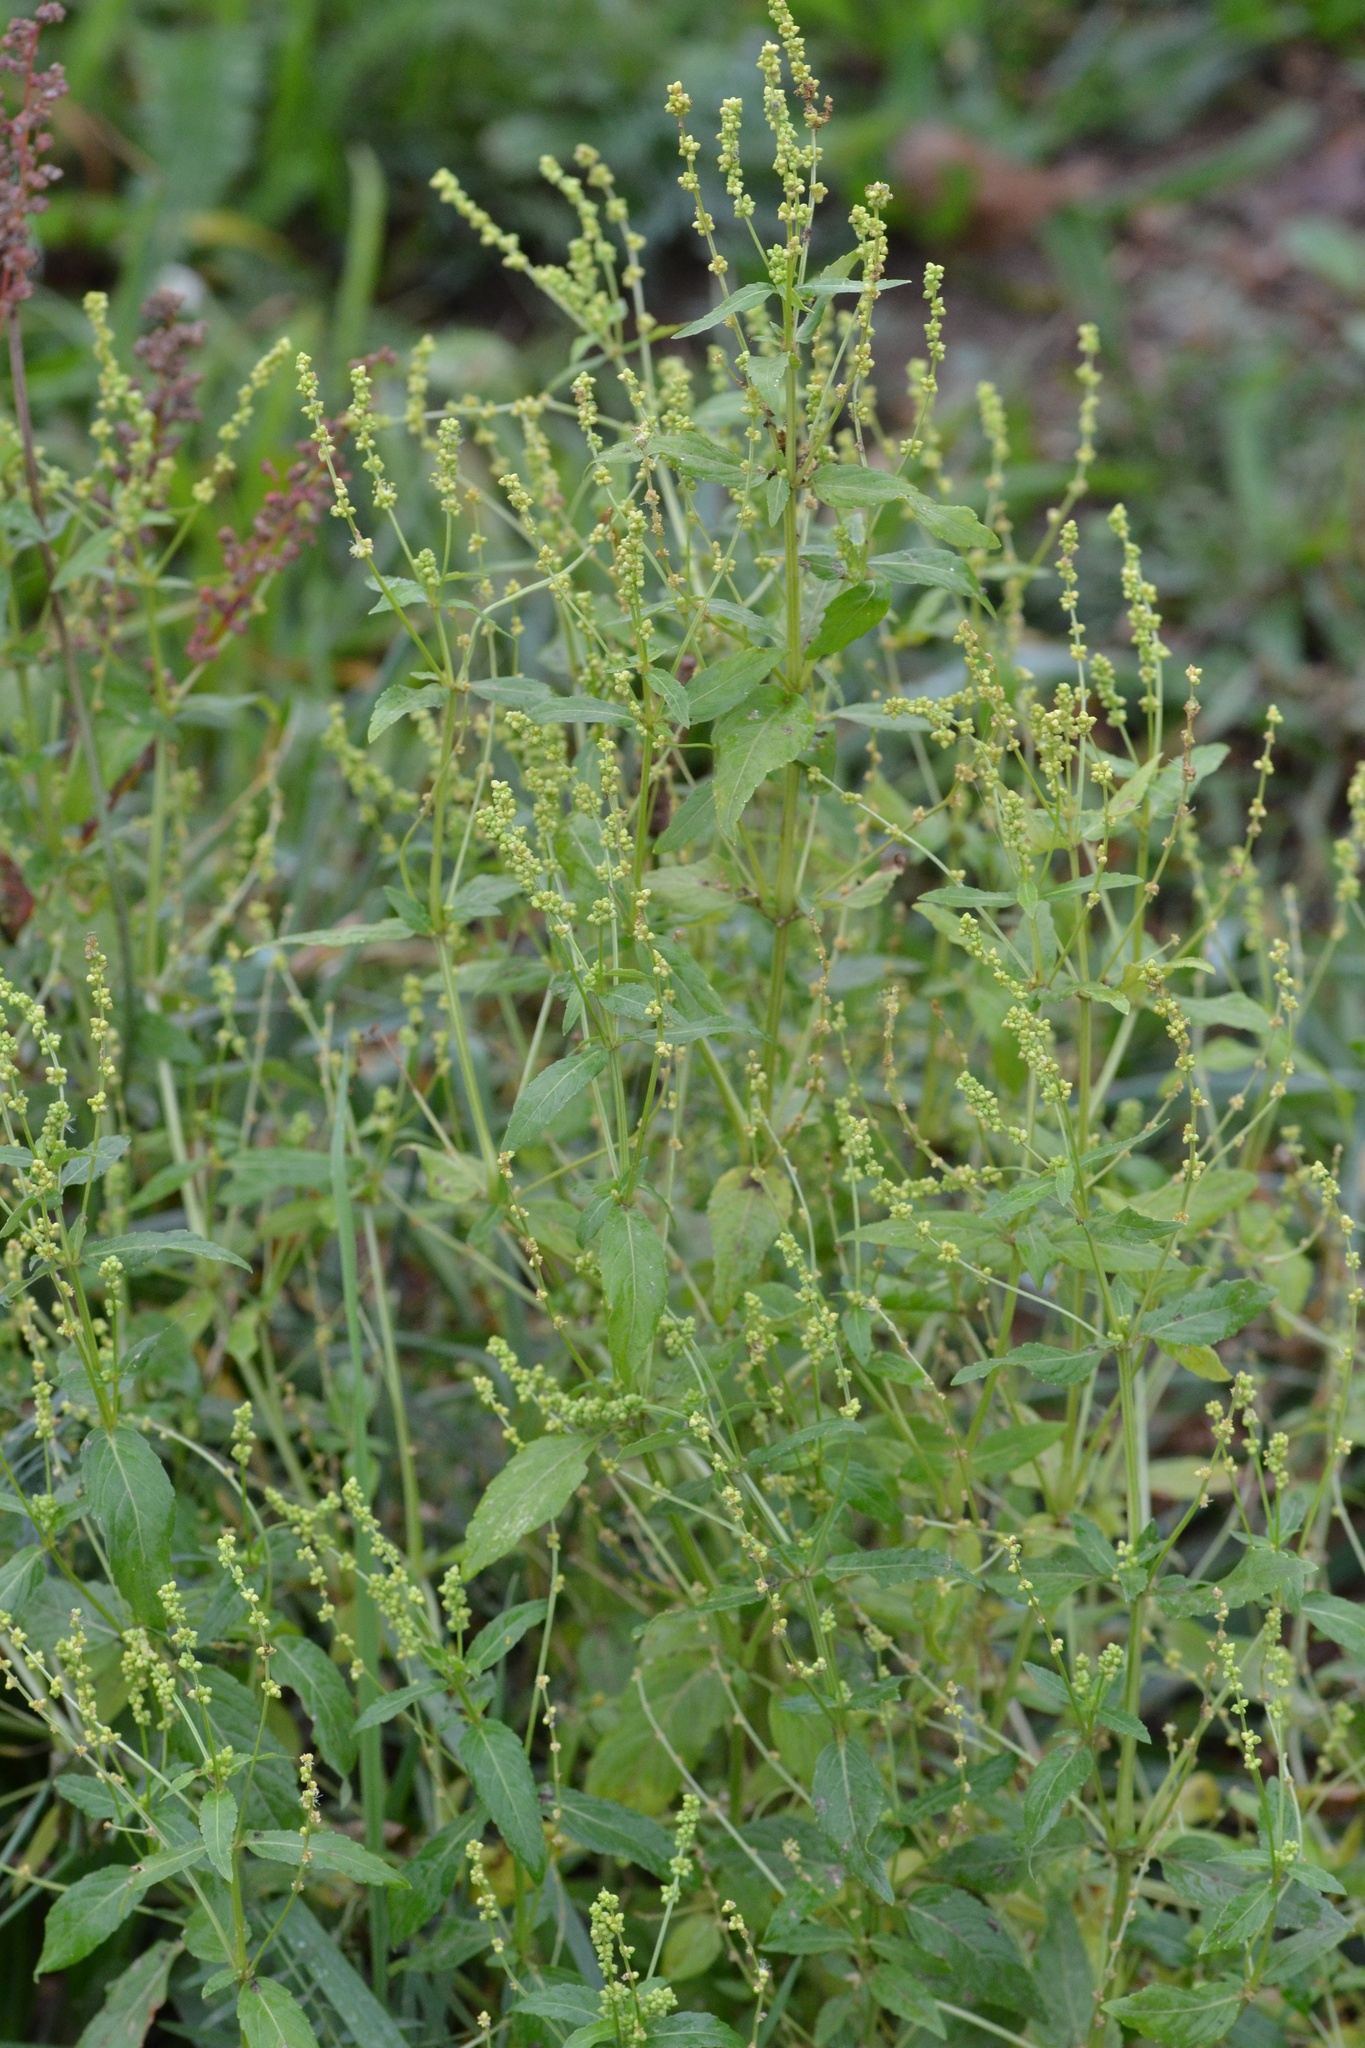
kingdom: Plantae
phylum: Tracheophyta
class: Magnoliopsida
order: Malpighiales
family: Euphorbiaceae
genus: Mercurialis
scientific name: Mercurialis annua
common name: Annual mercury
